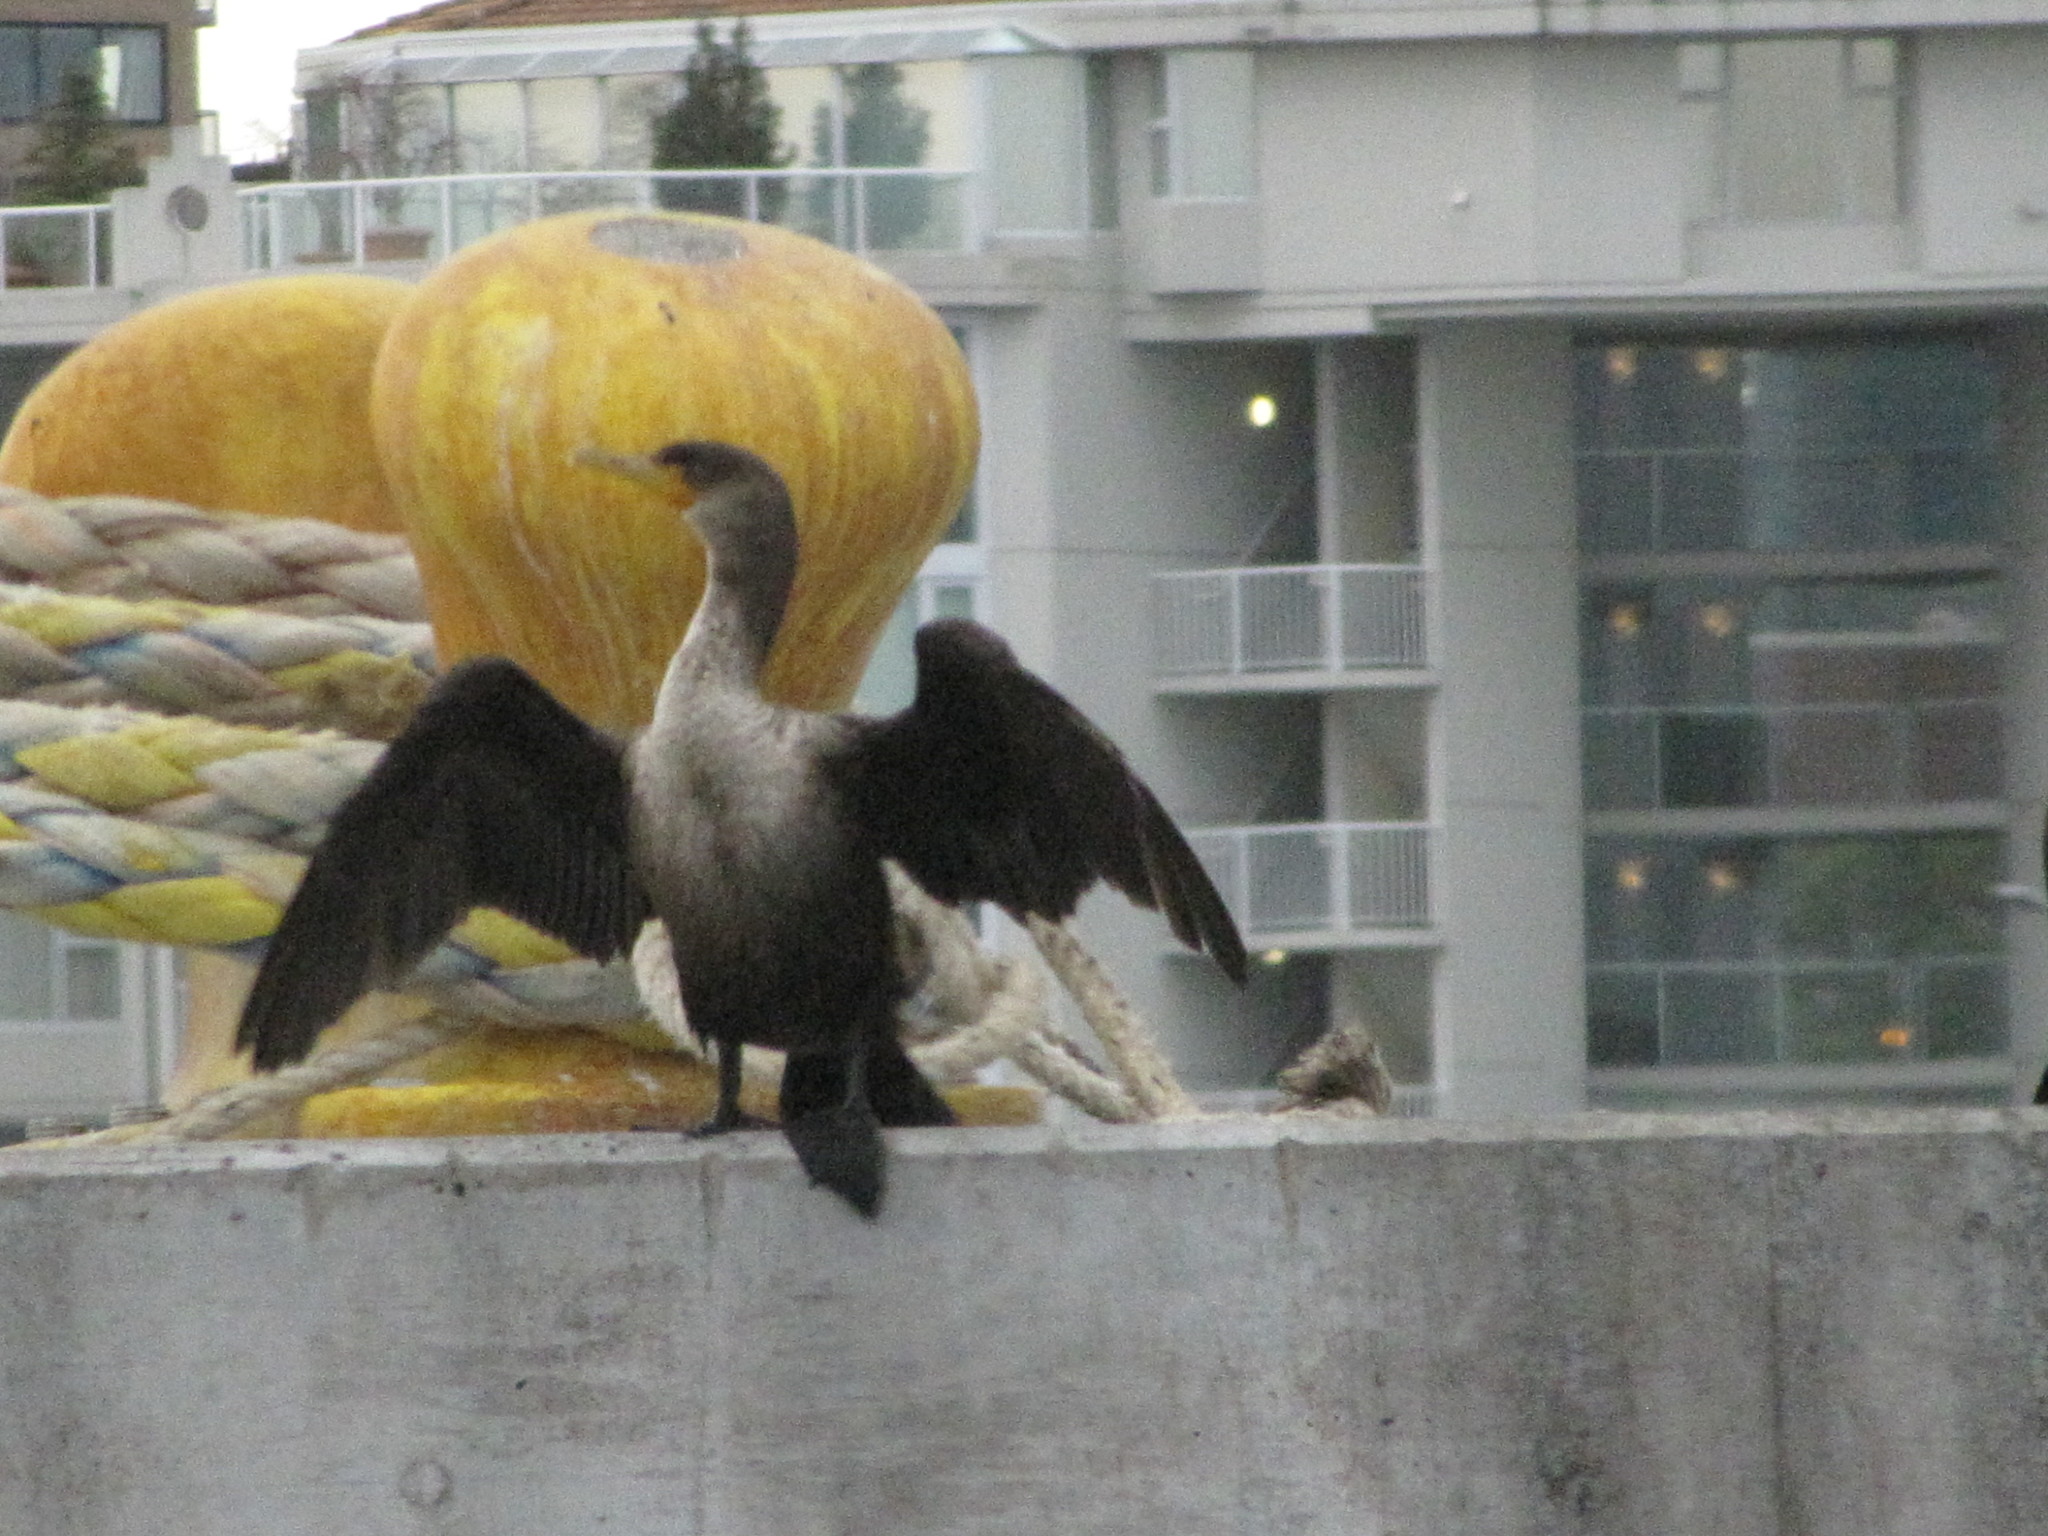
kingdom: Animalia
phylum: Chordata
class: Aves
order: Suliformes
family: Phalacrocoracidae
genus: Phalacrocorax
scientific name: Phalacrocorax auritus
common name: Double-crested cormorant
